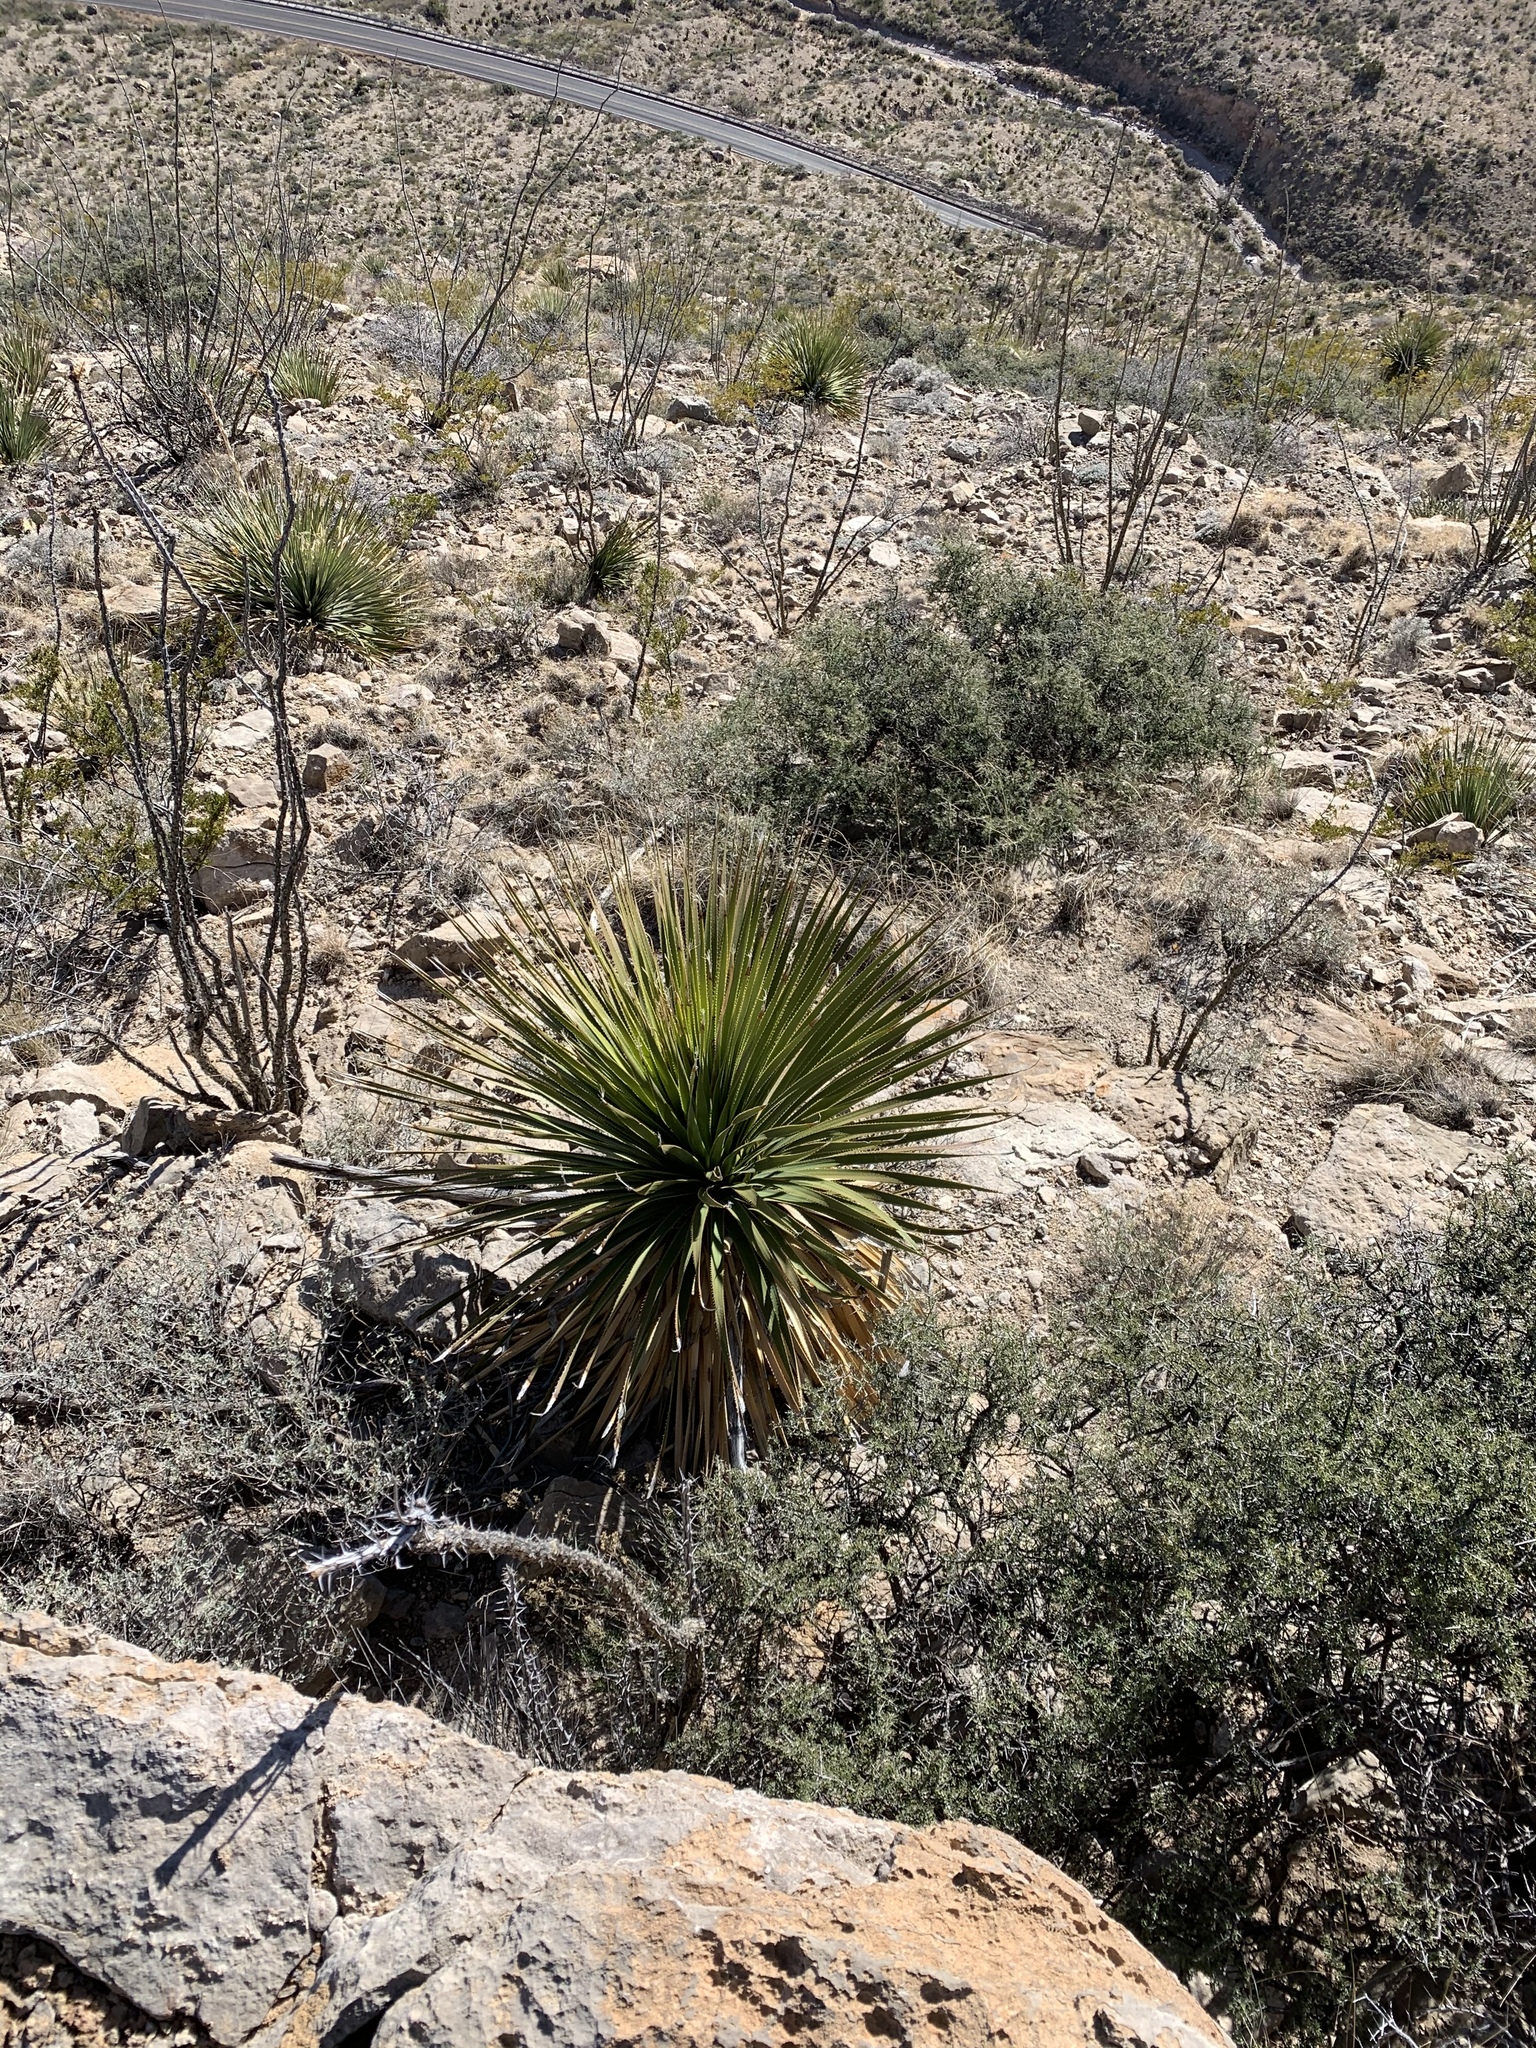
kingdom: Plantae
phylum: Tracheophyta
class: Liliopsida
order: Asparagales
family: Asparagaceae
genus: Dasylirion
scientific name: Dasylirion wheeleri
